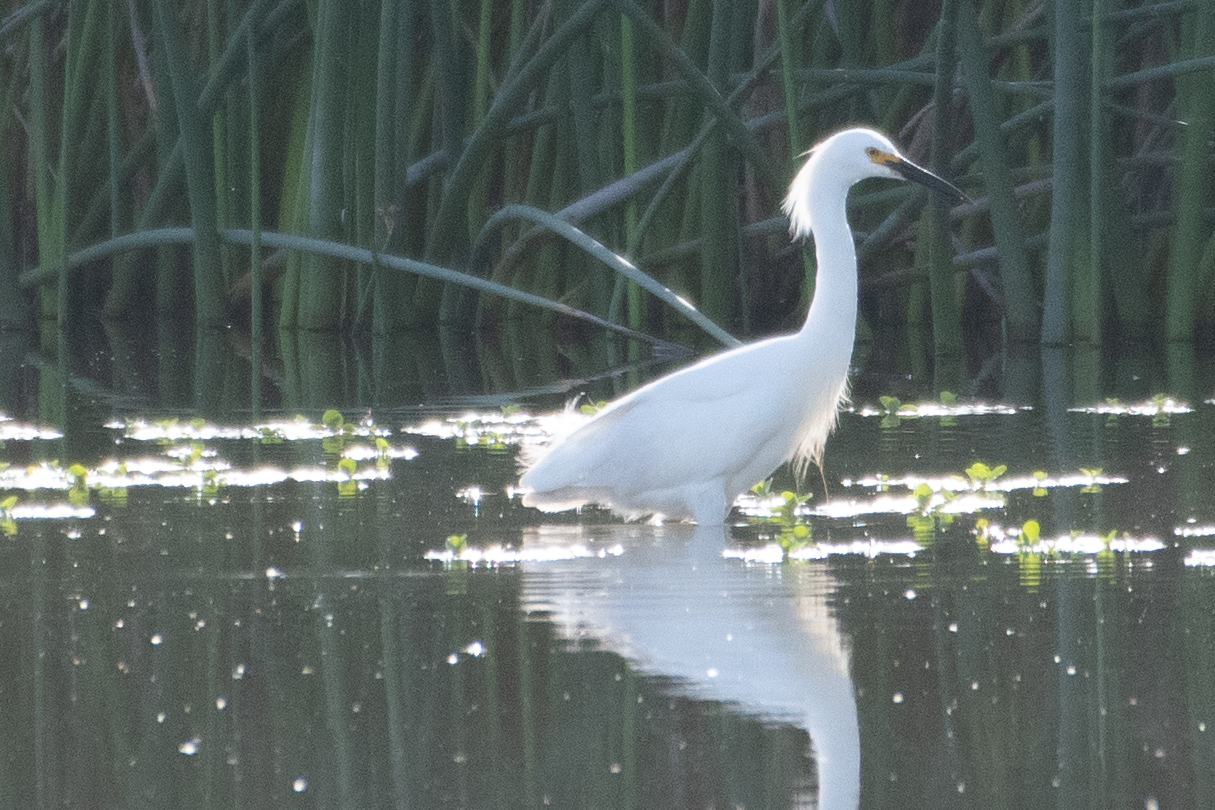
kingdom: Animalia
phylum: Chordata
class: Aves
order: Pelecaniformes
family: Ardeidae
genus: Egretta
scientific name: Egretta thula
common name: Snowy egret
